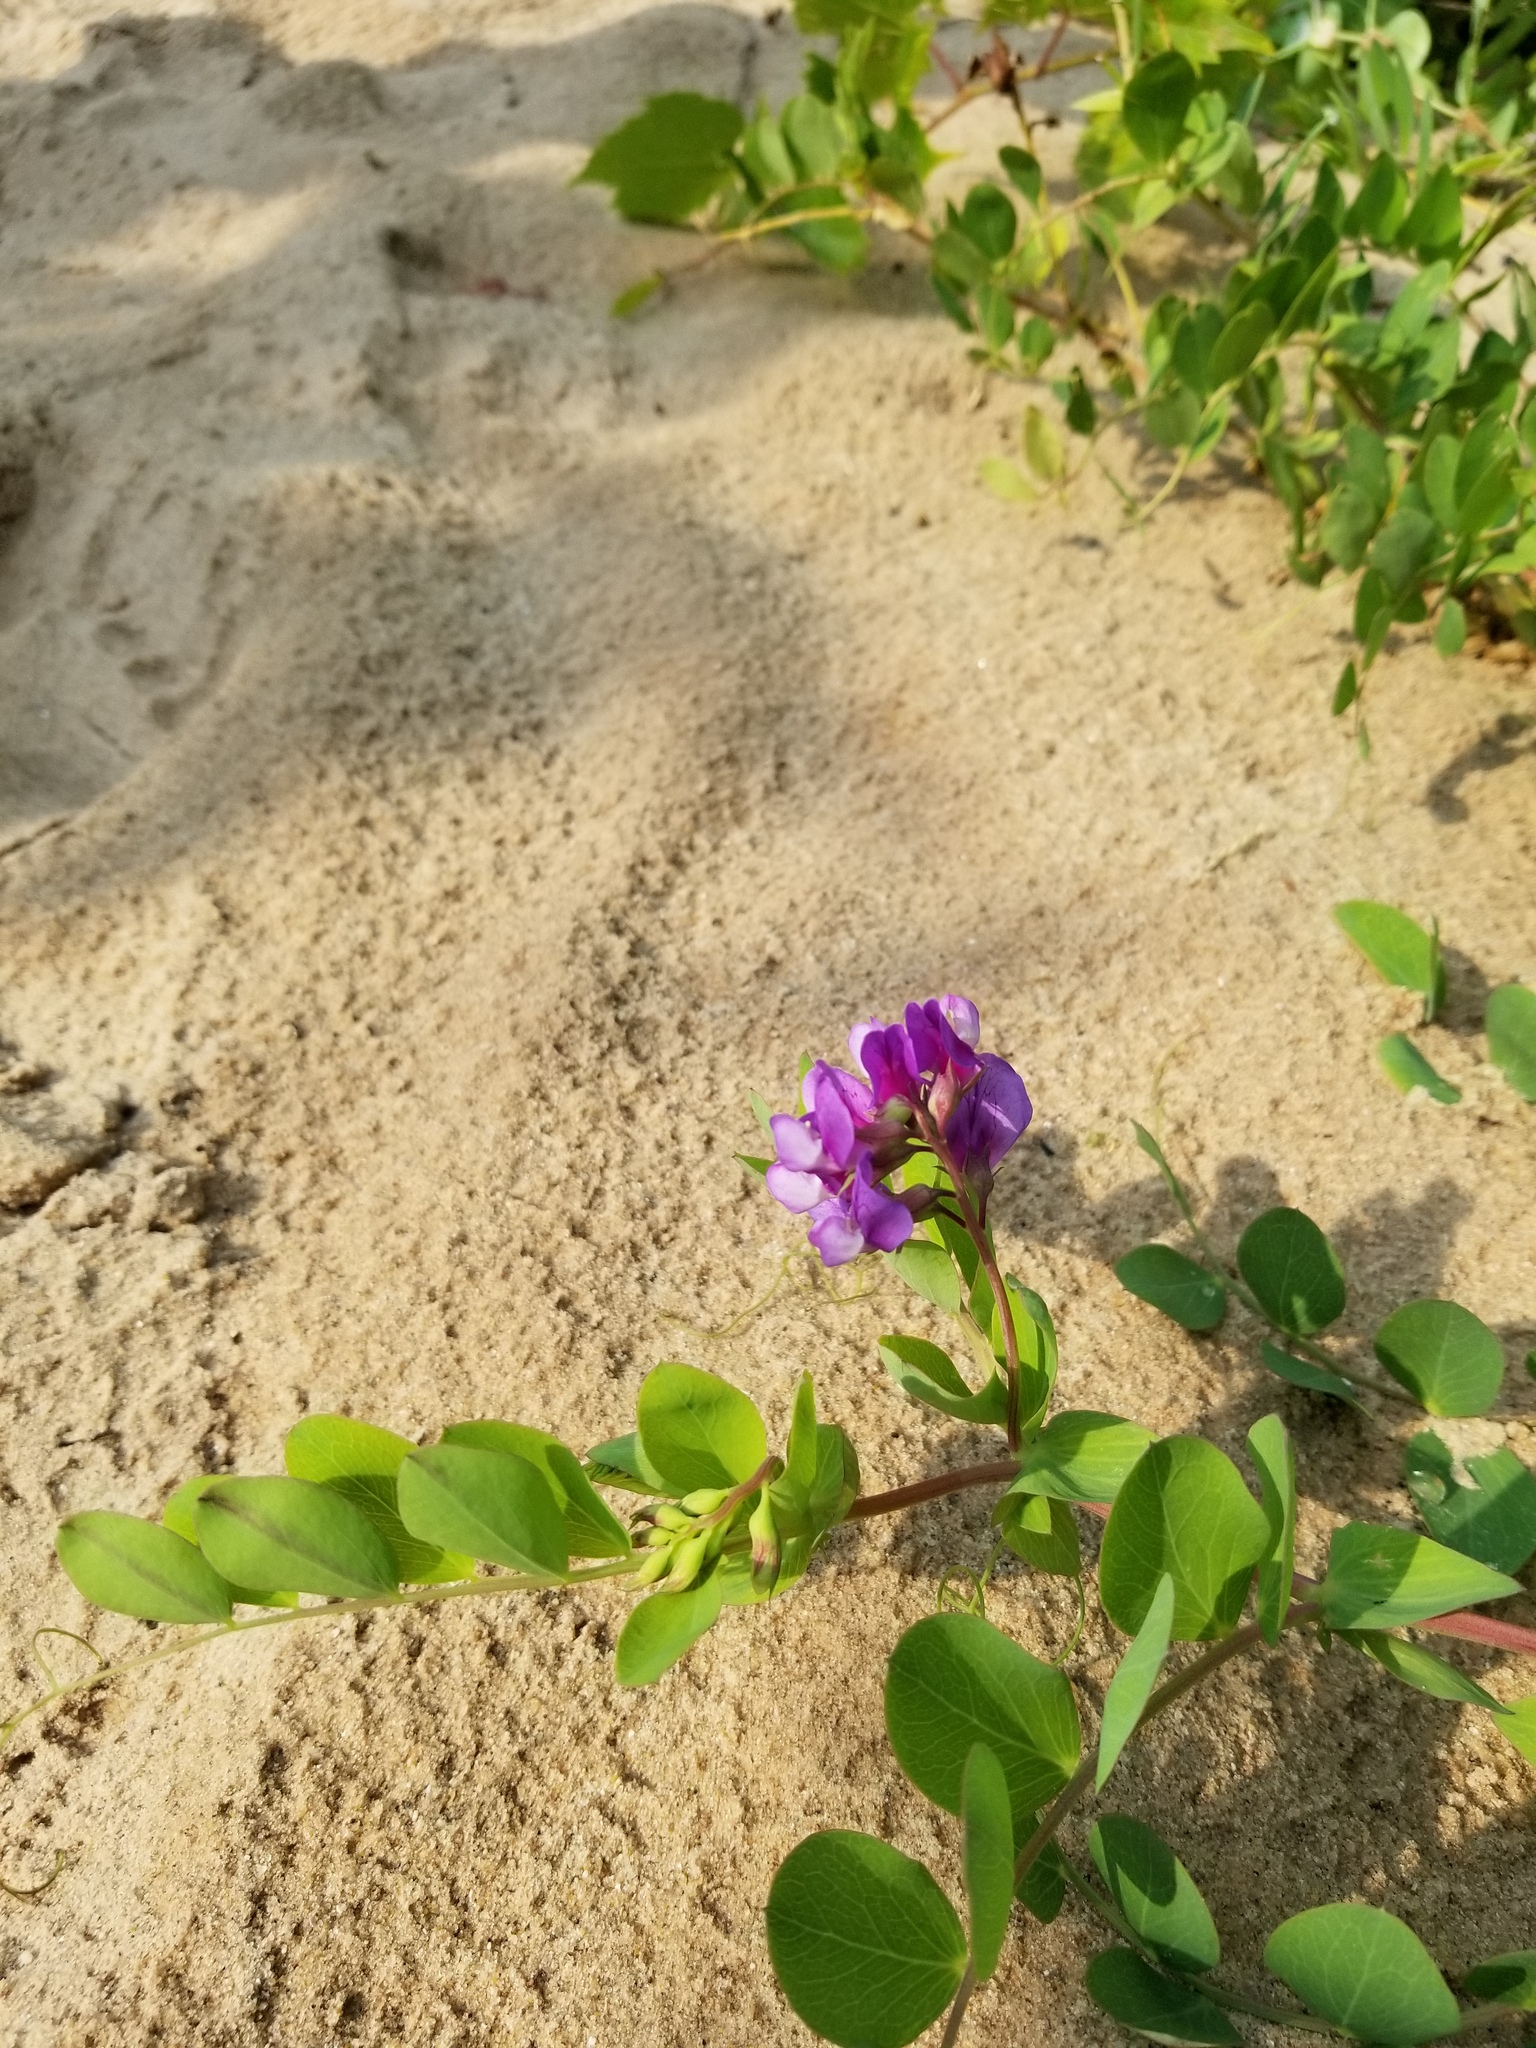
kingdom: Plantae
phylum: Tracheophyta
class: Magnoliopsida
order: Fabales
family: Fabaceae
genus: Lathyrus
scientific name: Lathyrus japonicus
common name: Sea pea
